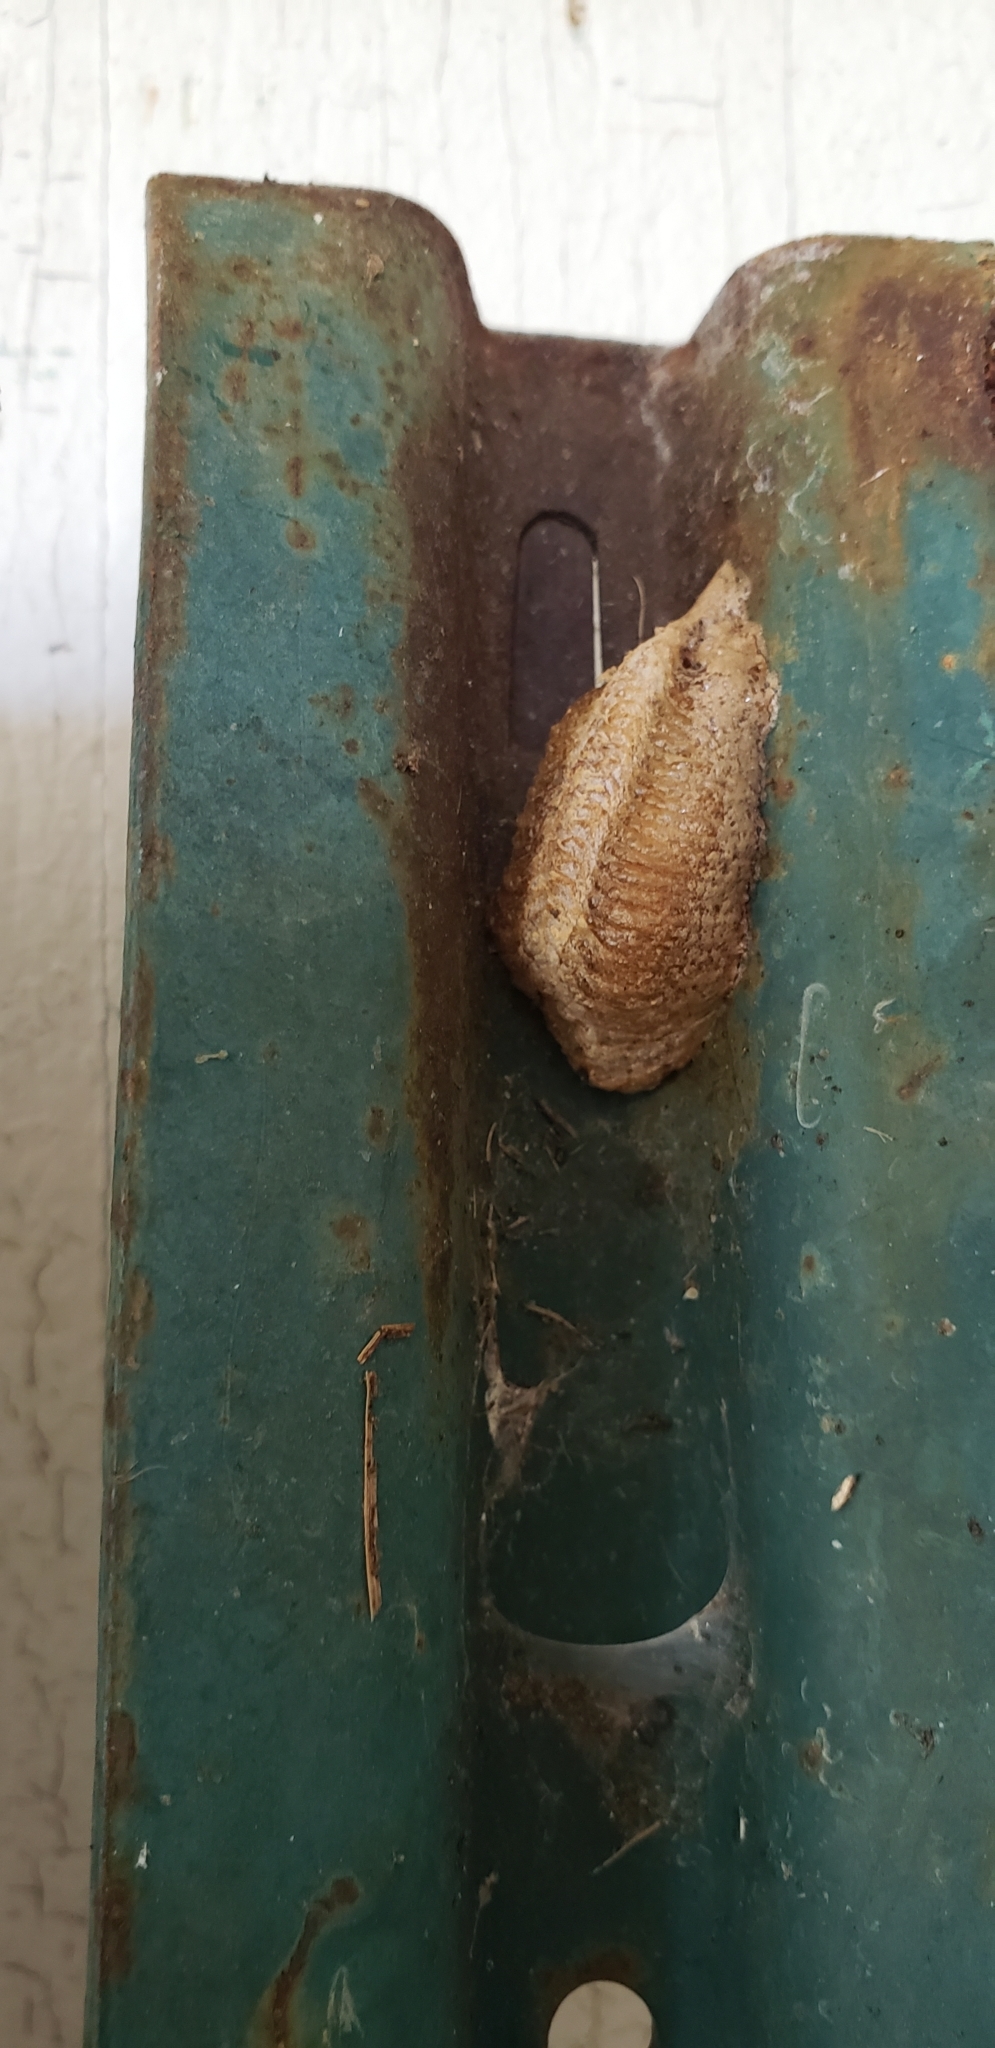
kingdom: Animalia
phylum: Arthropoda
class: Insecta
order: Mantodea
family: Mantidae
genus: Mantis
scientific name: Mantis religiosa
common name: Praying mantis
